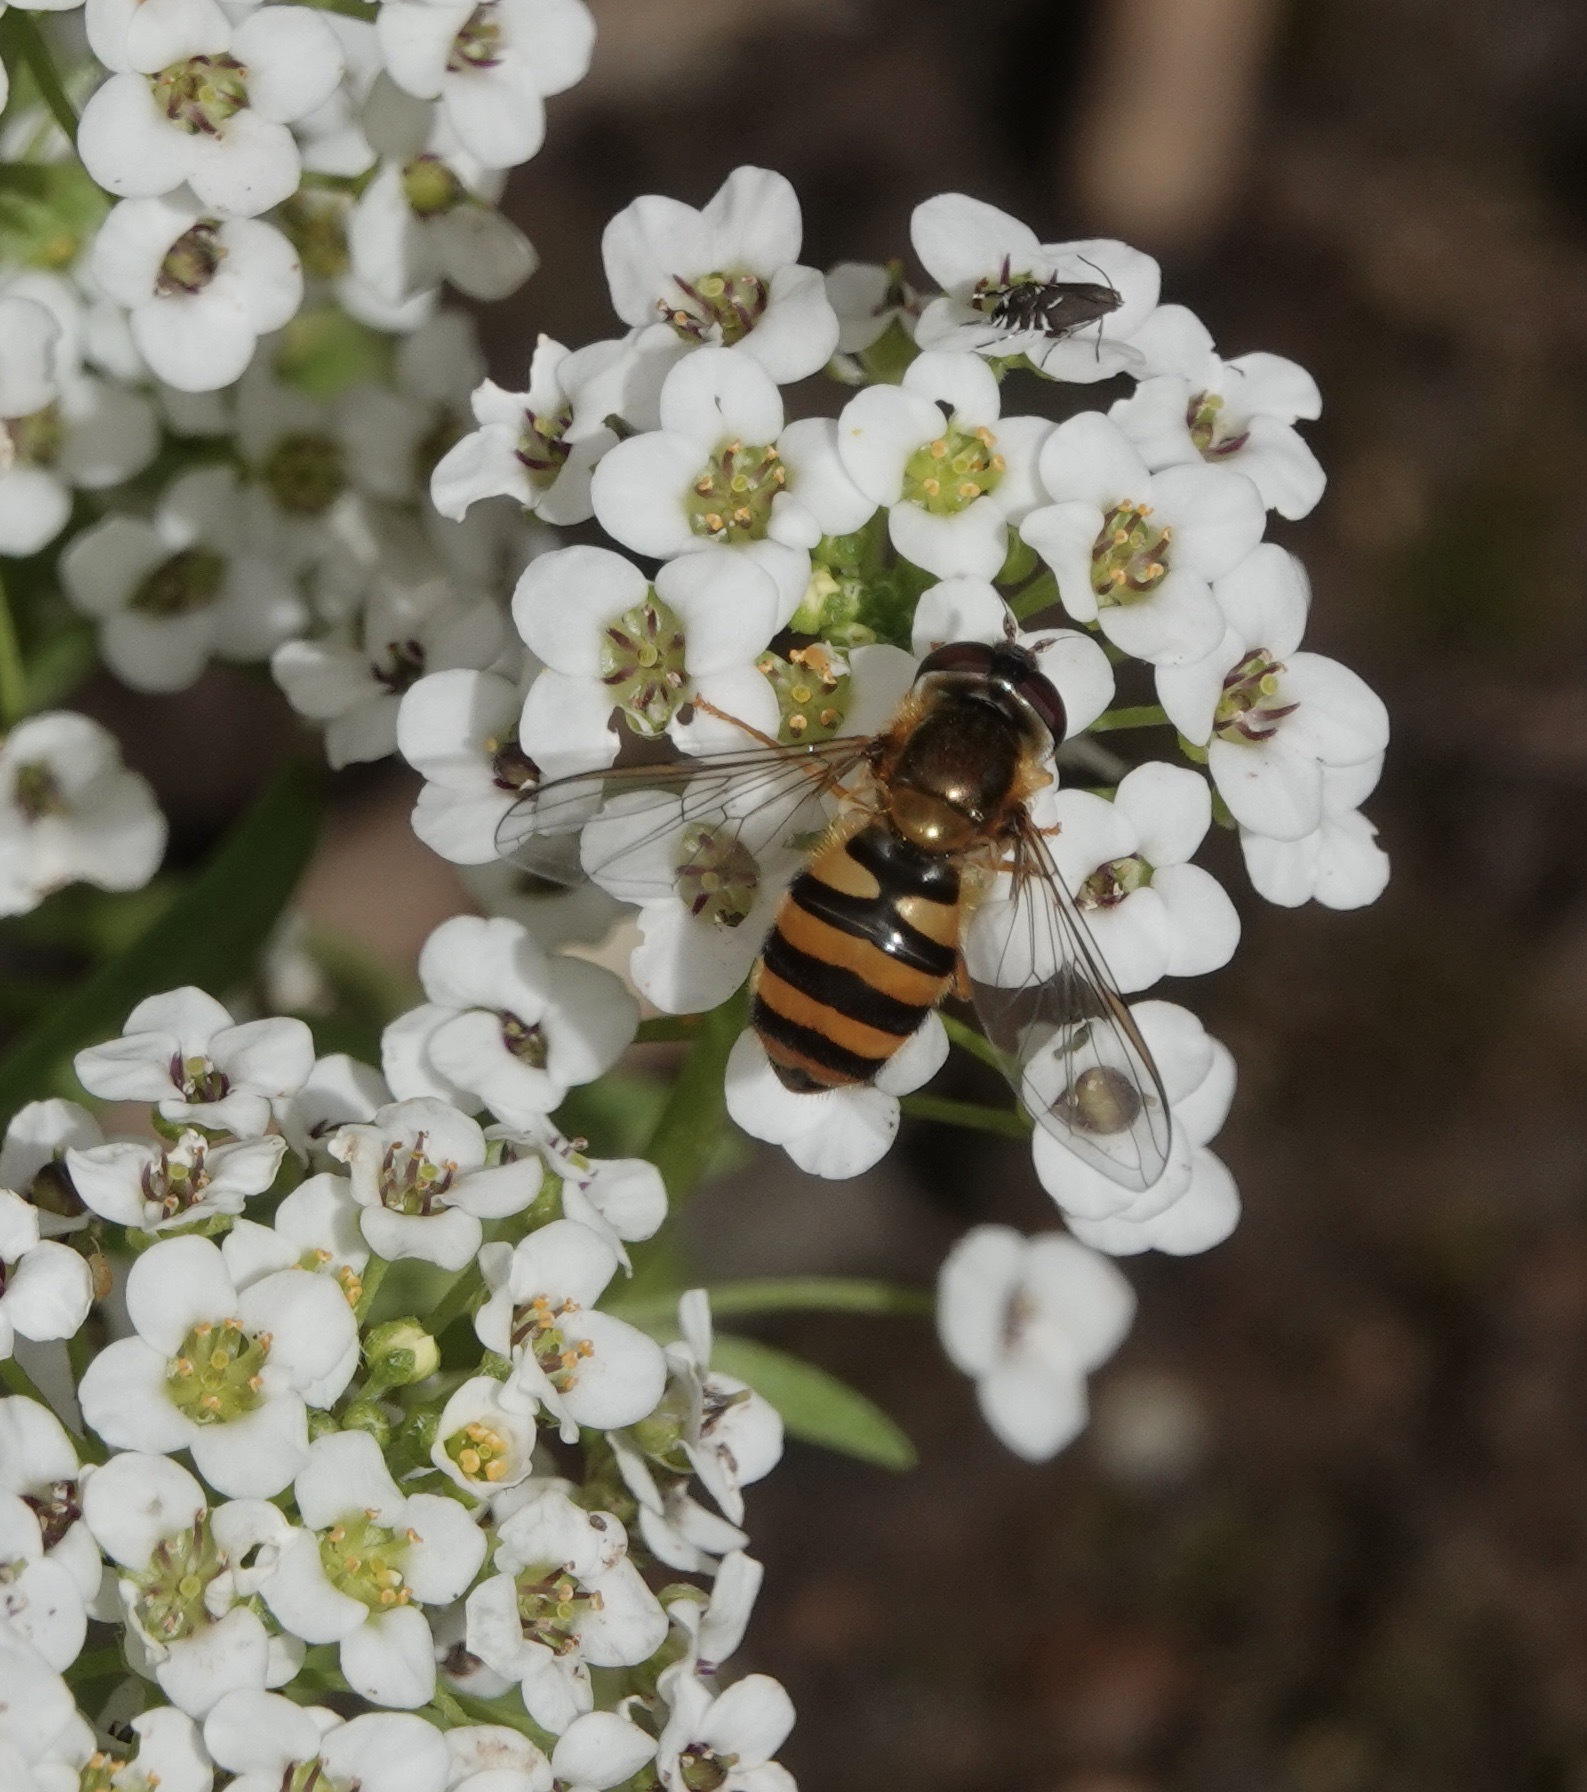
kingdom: Animalia
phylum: Arthropoda
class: Insecta
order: Diptera
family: Syrphidae
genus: Epistrophe
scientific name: Epistrophe
